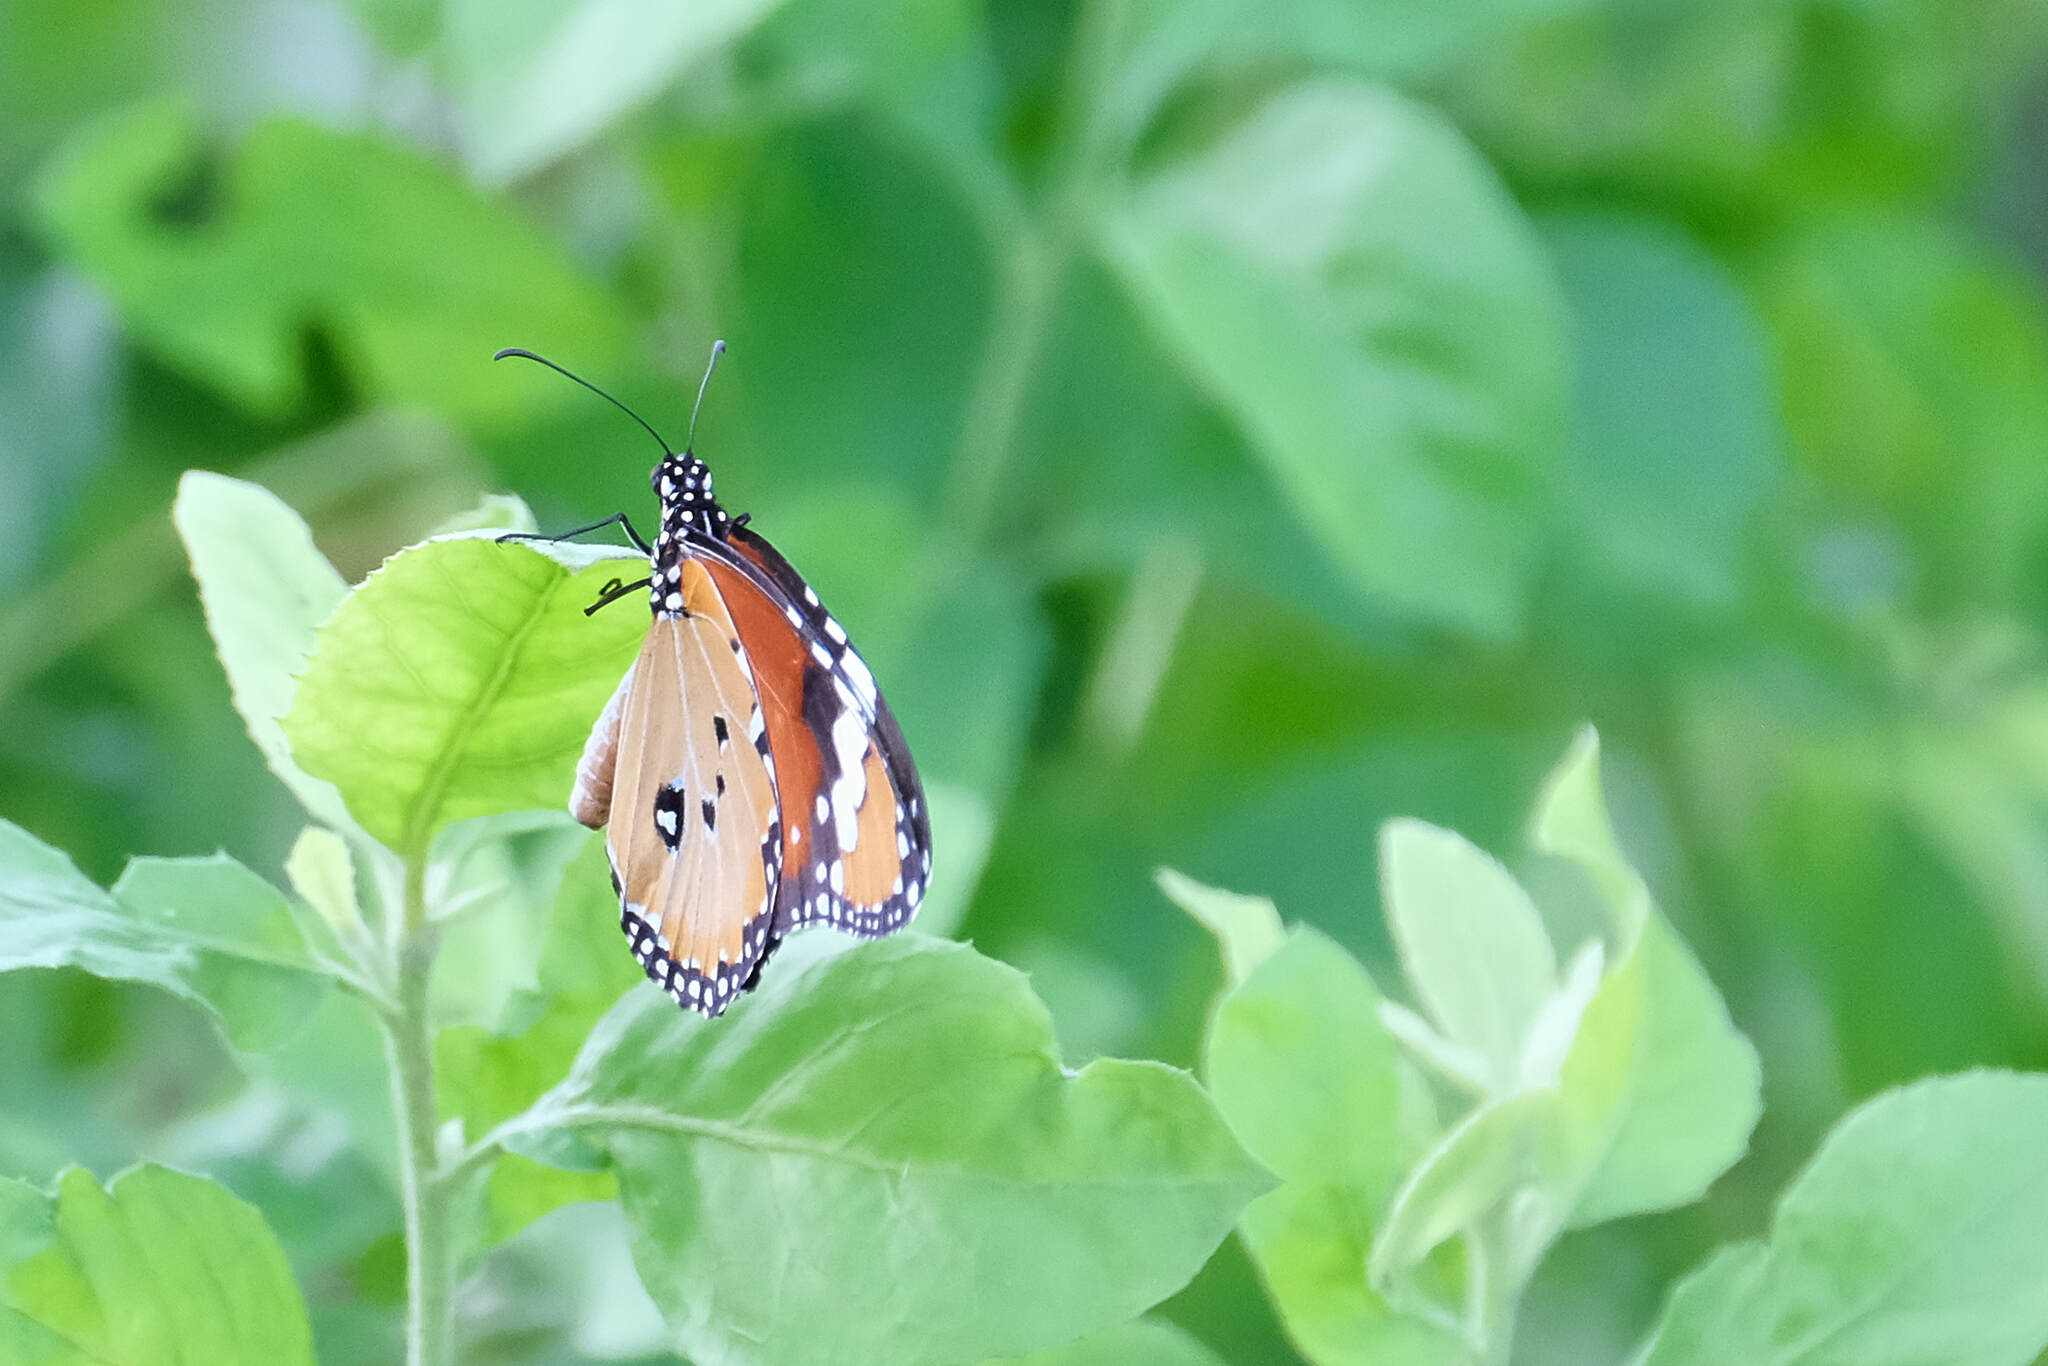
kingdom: Animalia
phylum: Arthropoda
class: Insecta
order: Lepidoptera
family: Nymphalidae
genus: Danaus
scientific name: Danaus chrysippus
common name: Plain tiger
